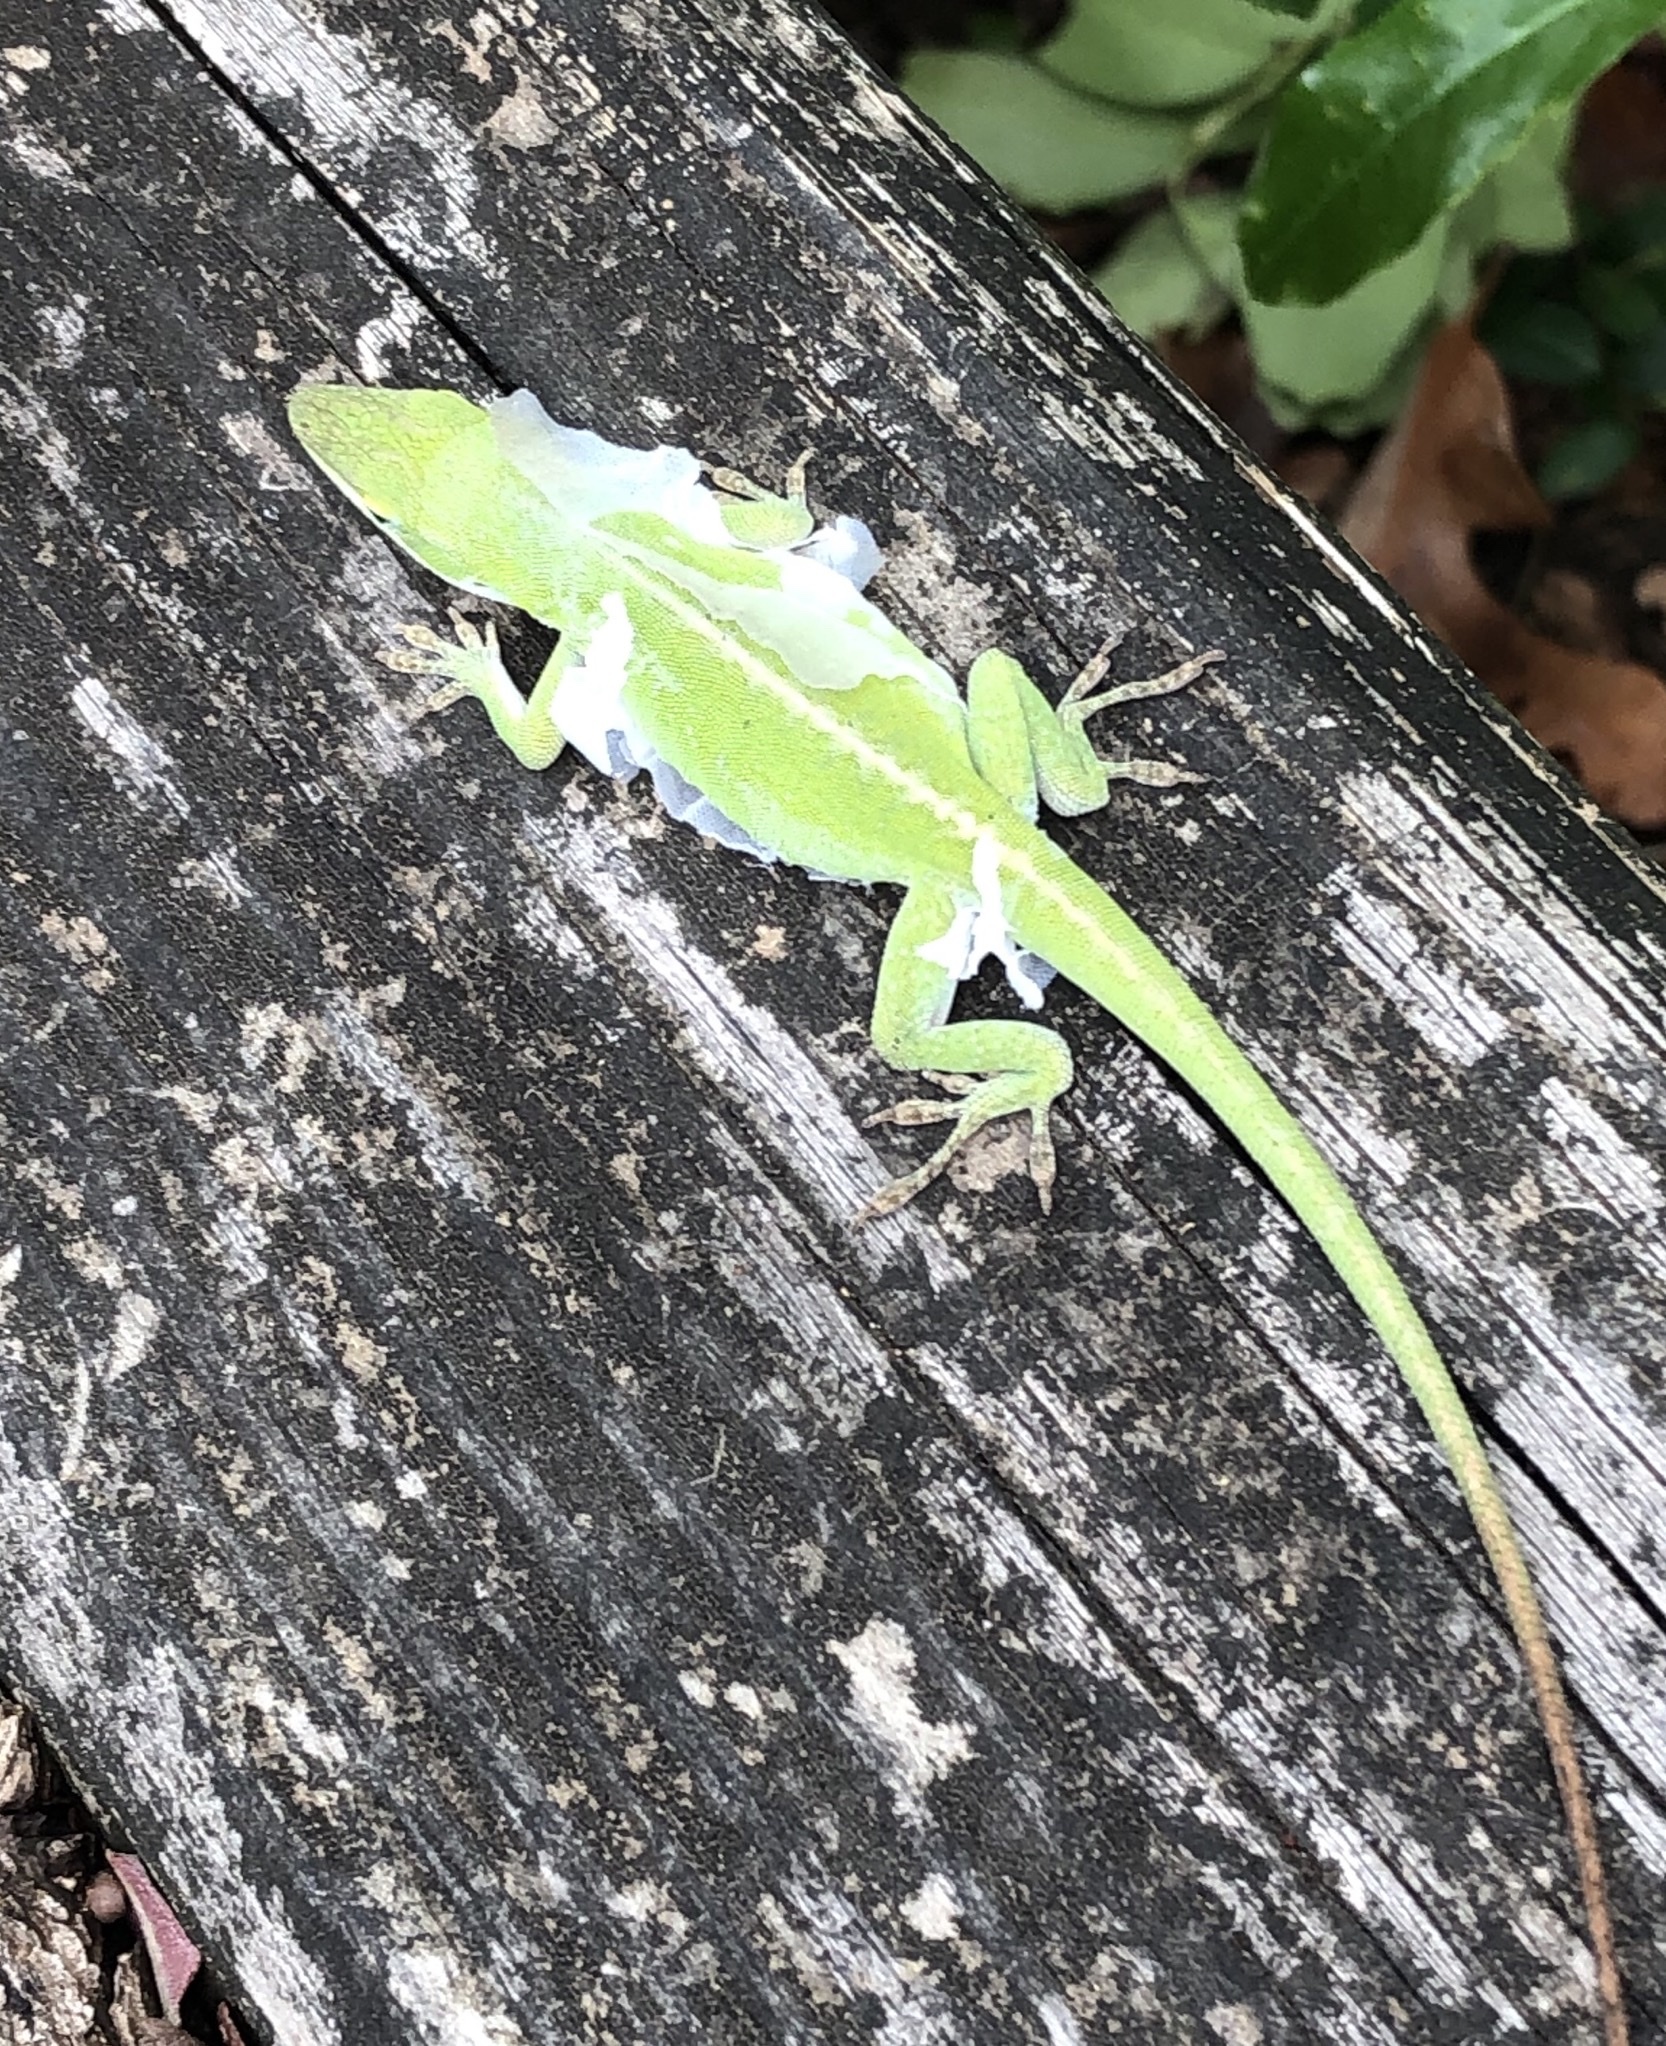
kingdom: Animalia
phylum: Chordata
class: Squamata
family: Dactyloidae
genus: Anolis
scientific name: Anolis carolinensis
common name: Green anole
